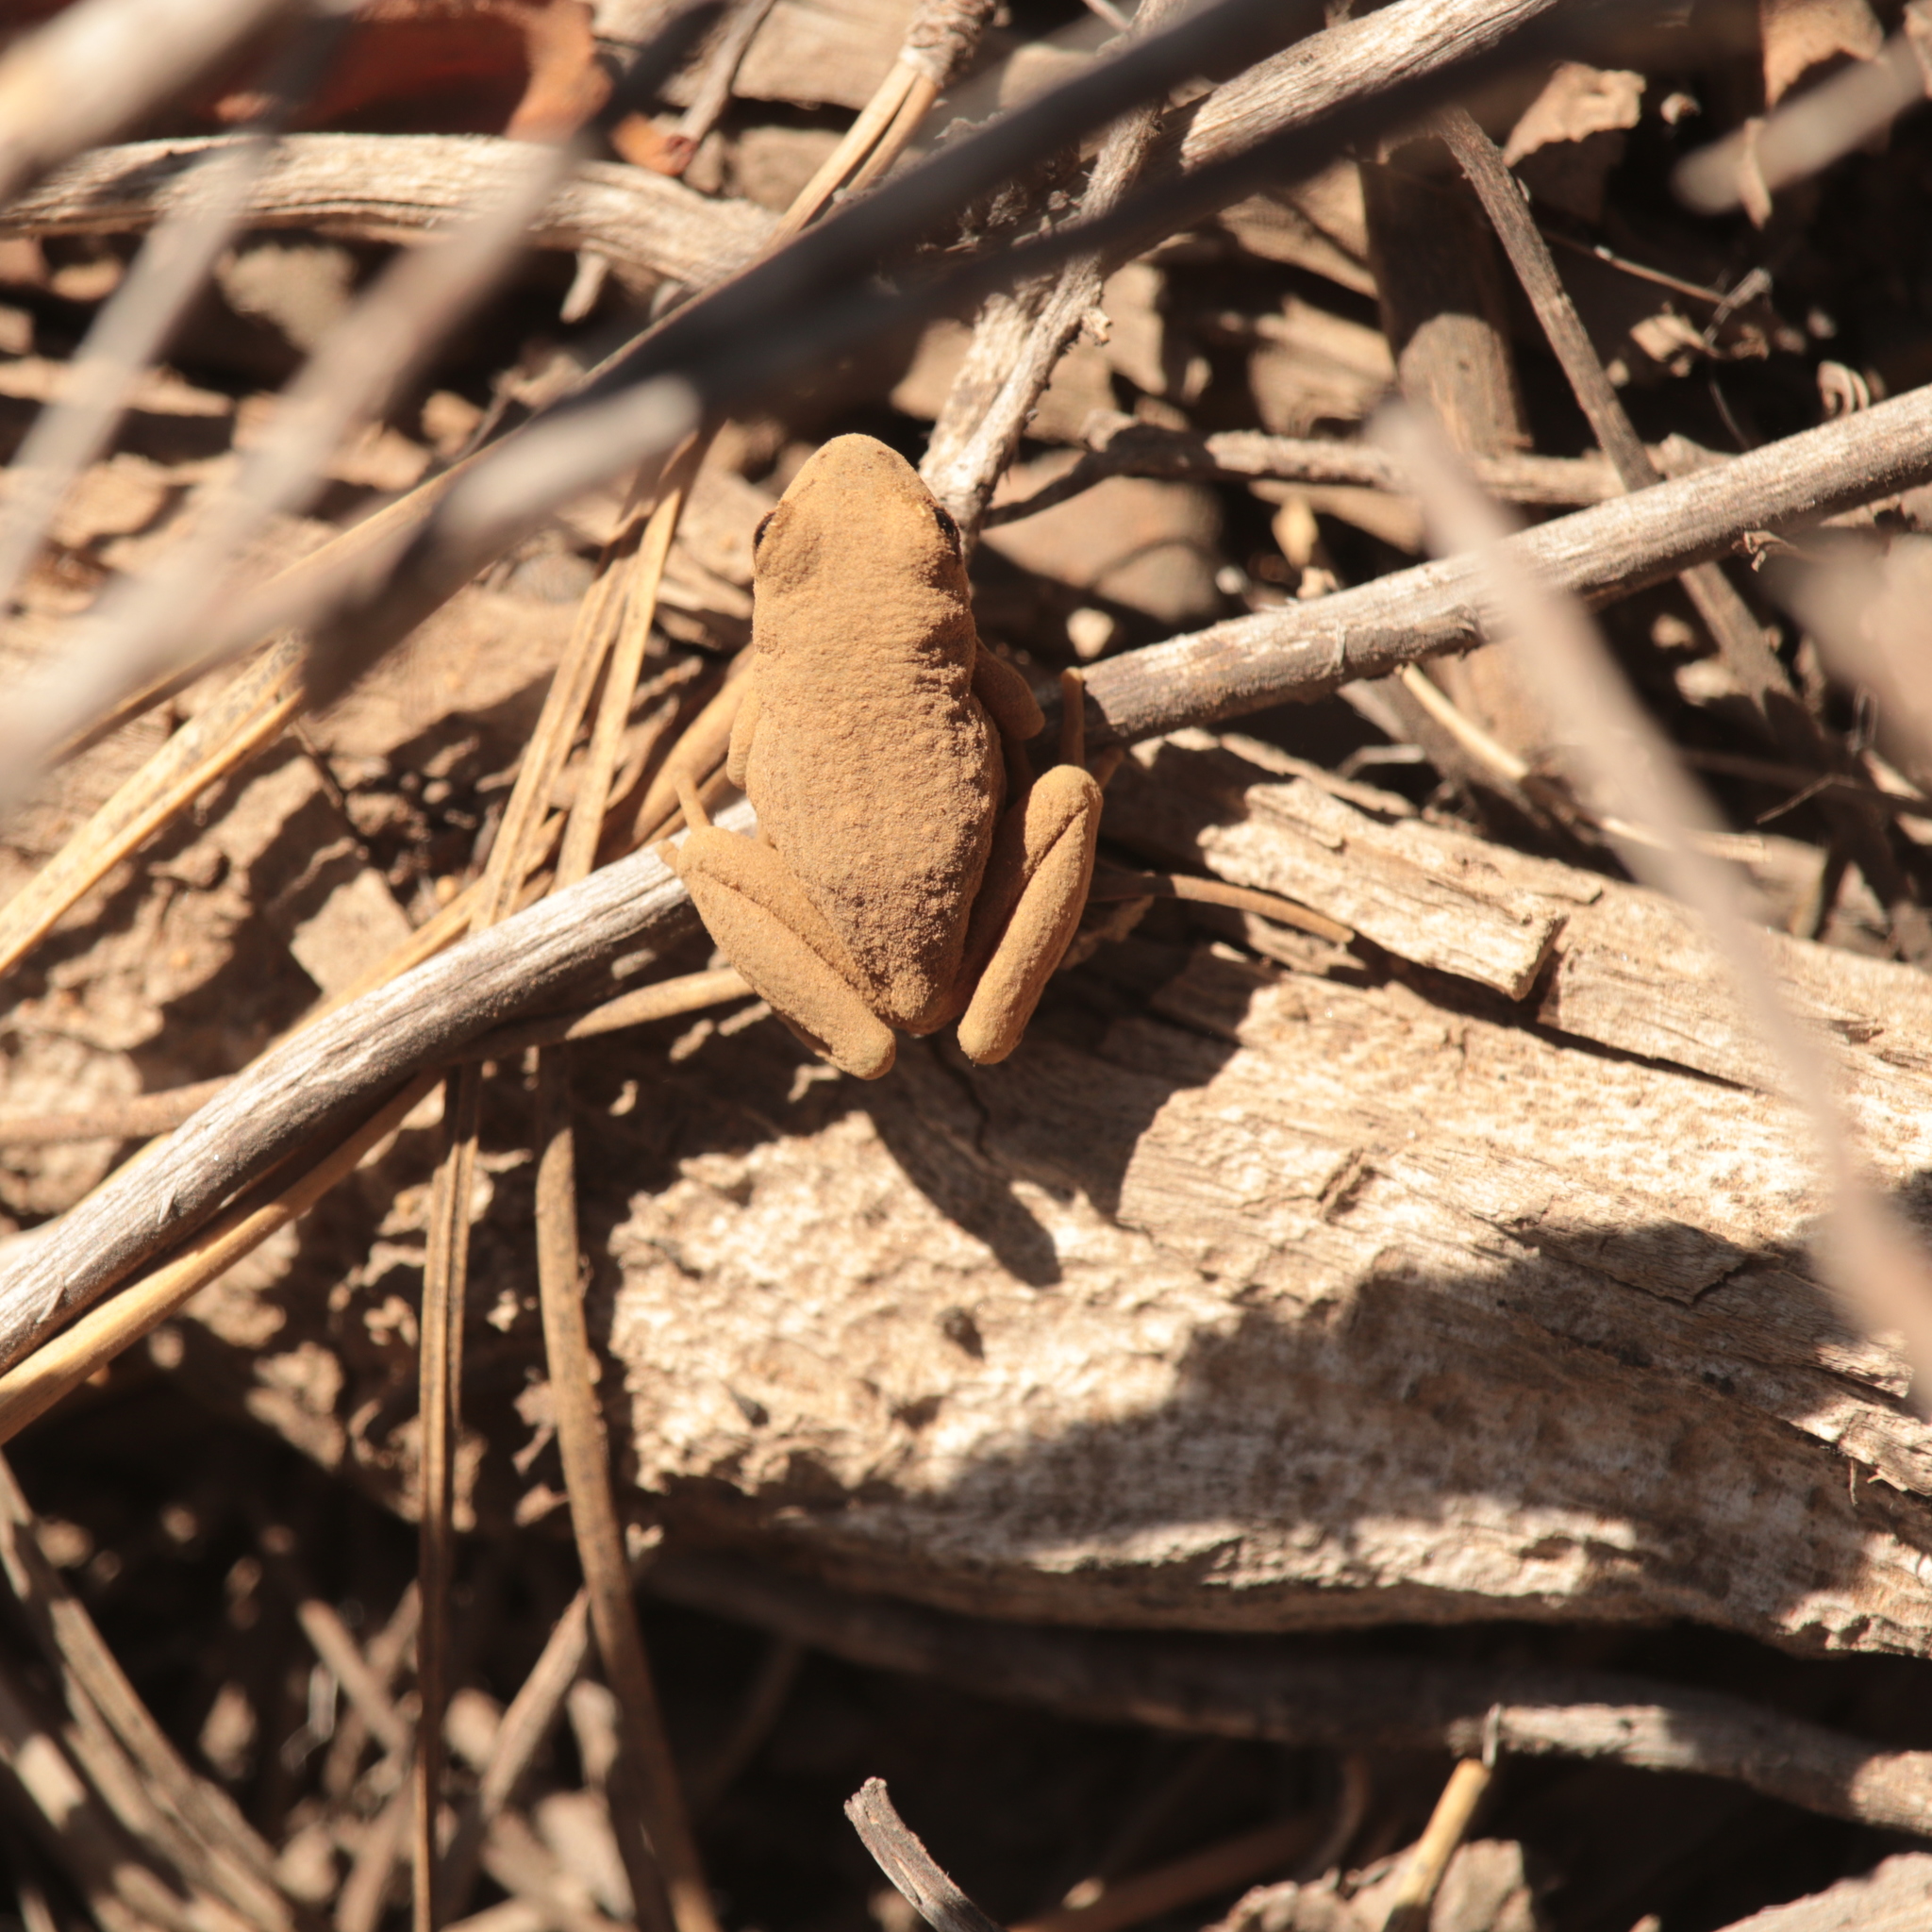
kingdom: Animalia
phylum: Chordata
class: Amphibia
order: Anura
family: Hylidae
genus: Pseudacris
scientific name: Pseudacris regilla
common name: Pacific chorus frog
